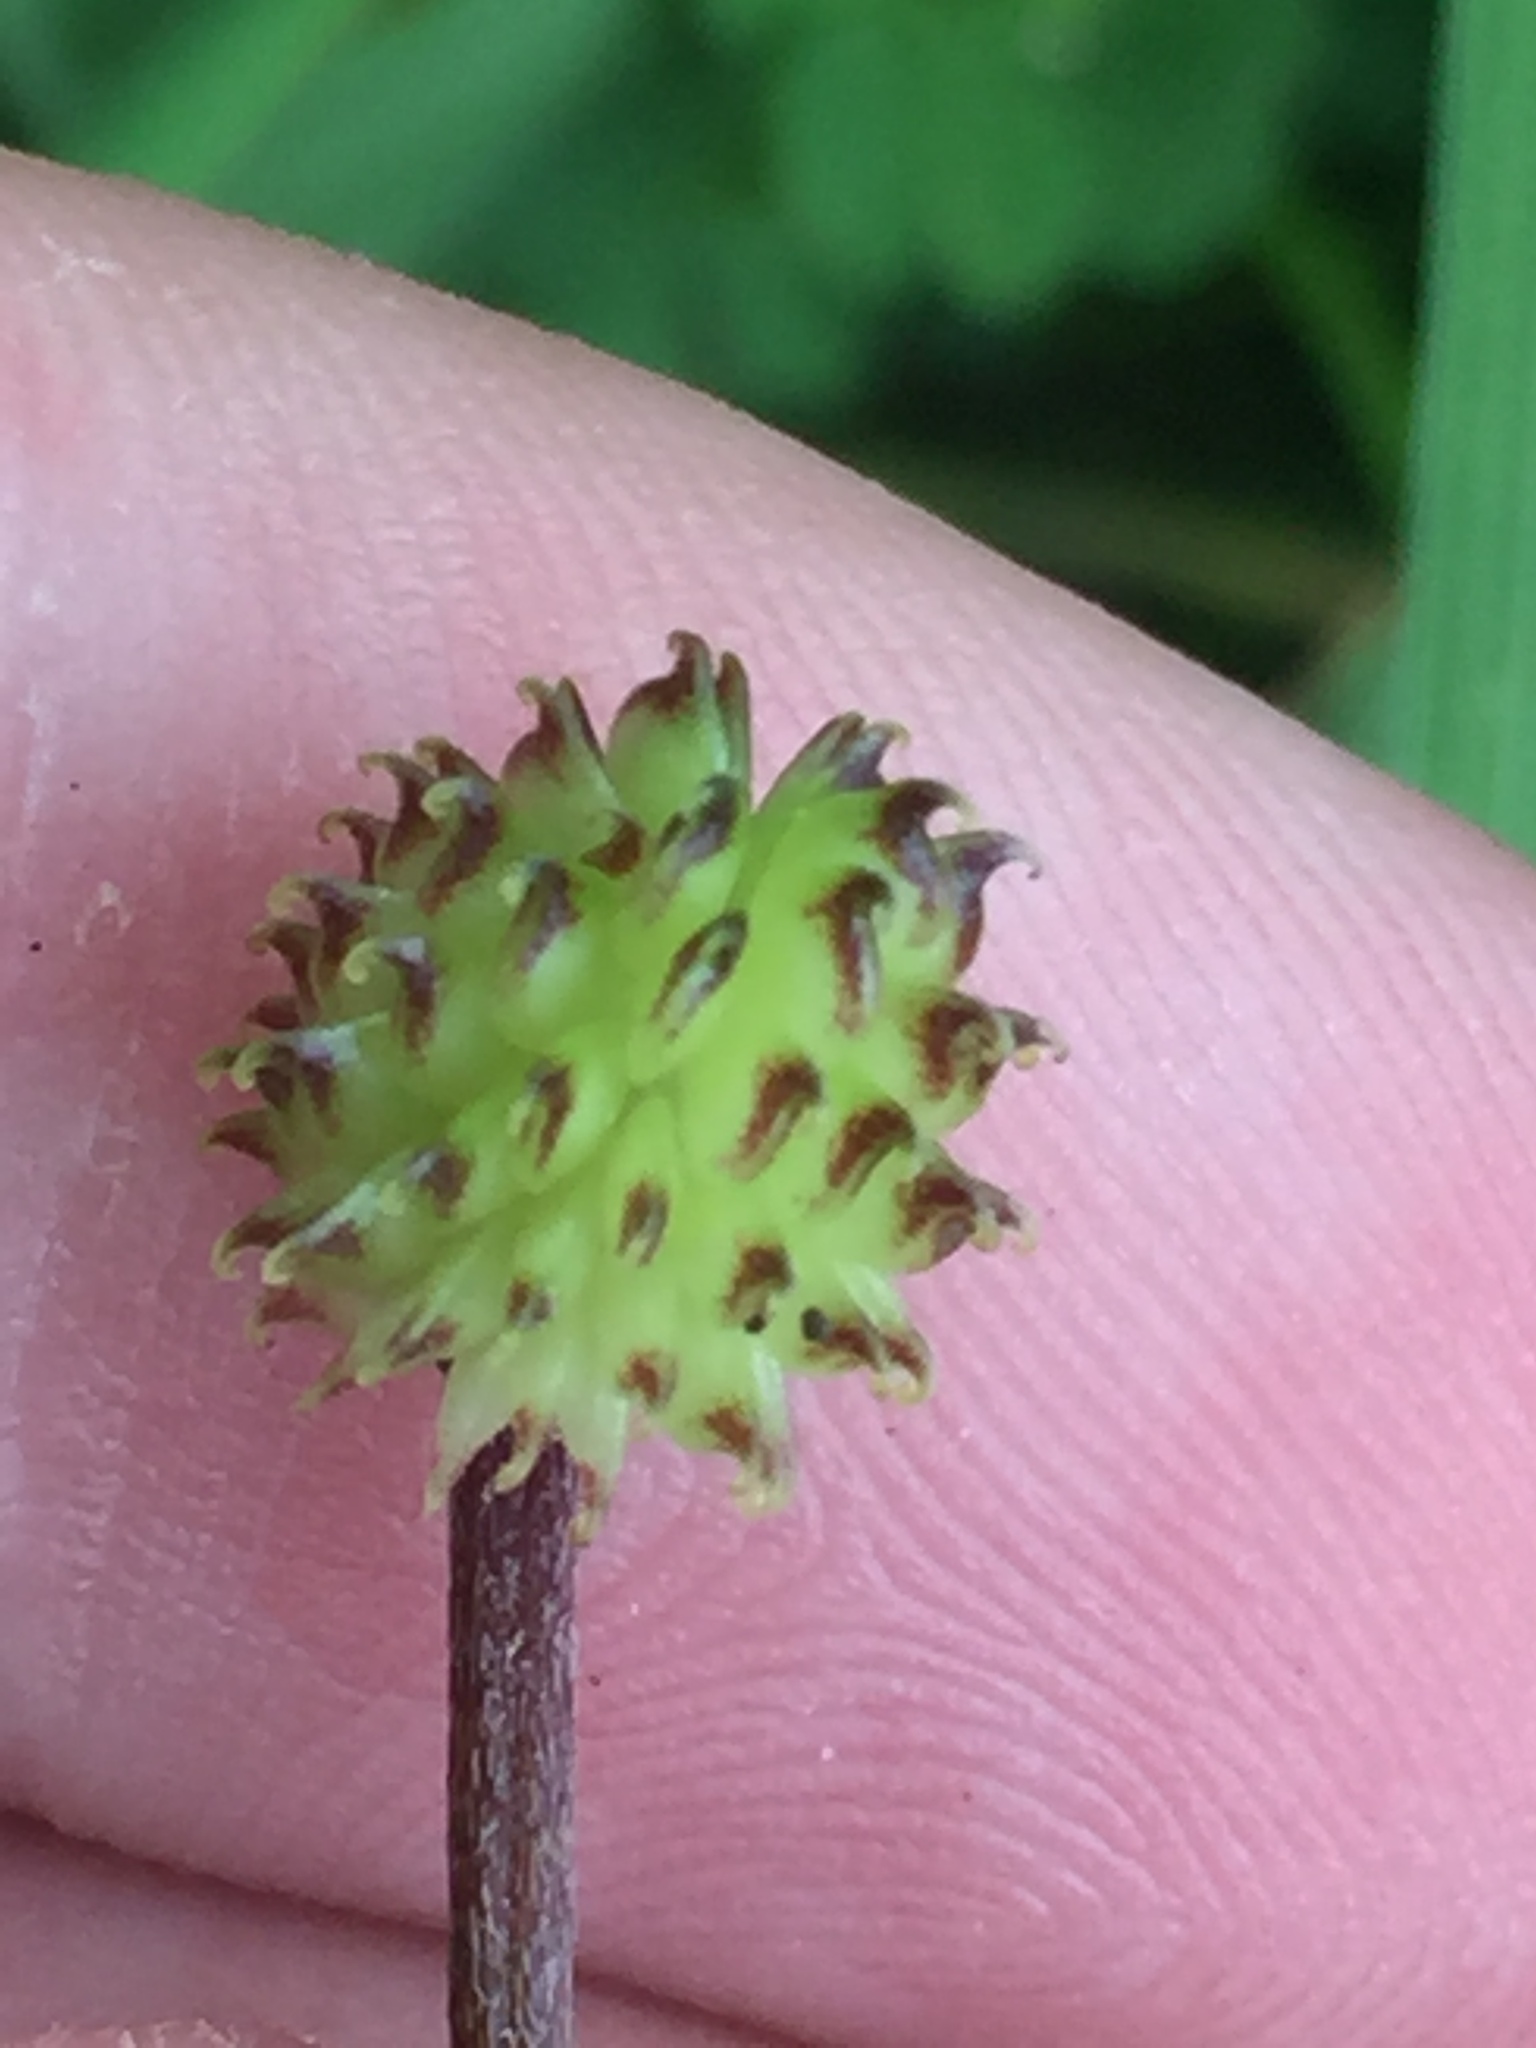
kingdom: Plantae
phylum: Tracheophyta
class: Magnoliopsida
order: Ranunculales
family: Ranunculaceae
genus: Ranunculus
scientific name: Ranunculus reflexus
